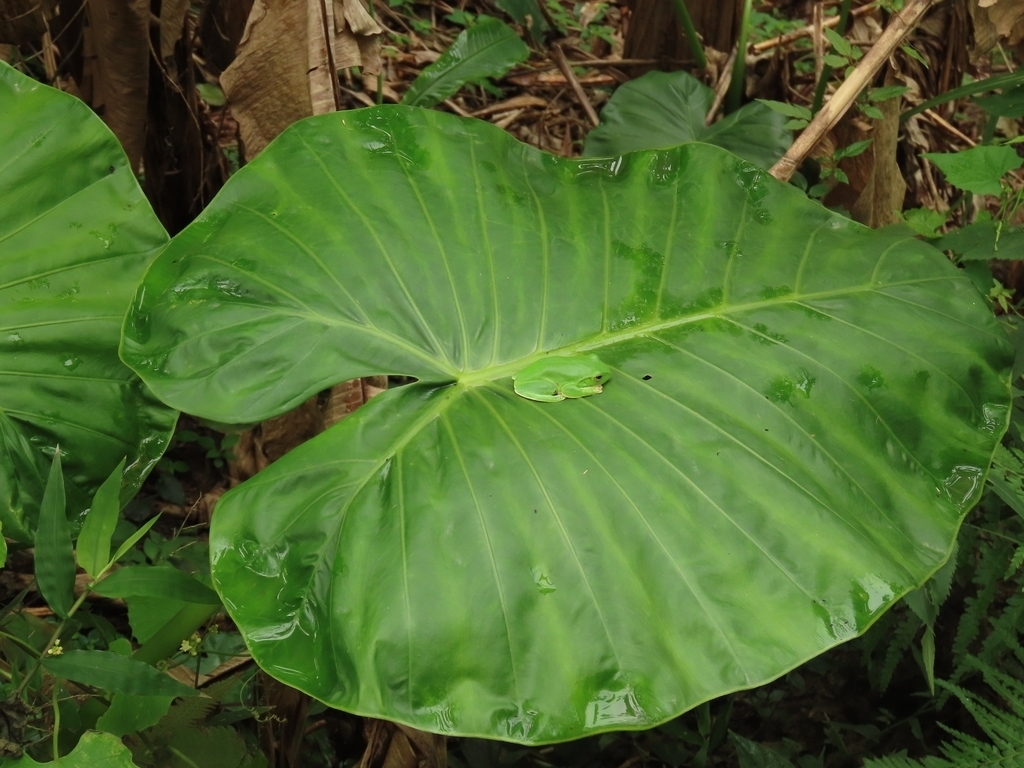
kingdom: Plantae
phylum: Tracheophyta
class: Liliopsida
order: Alismatales
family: Araceae
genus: Alocasia
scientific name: Alocasia odora
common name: Asian taro
